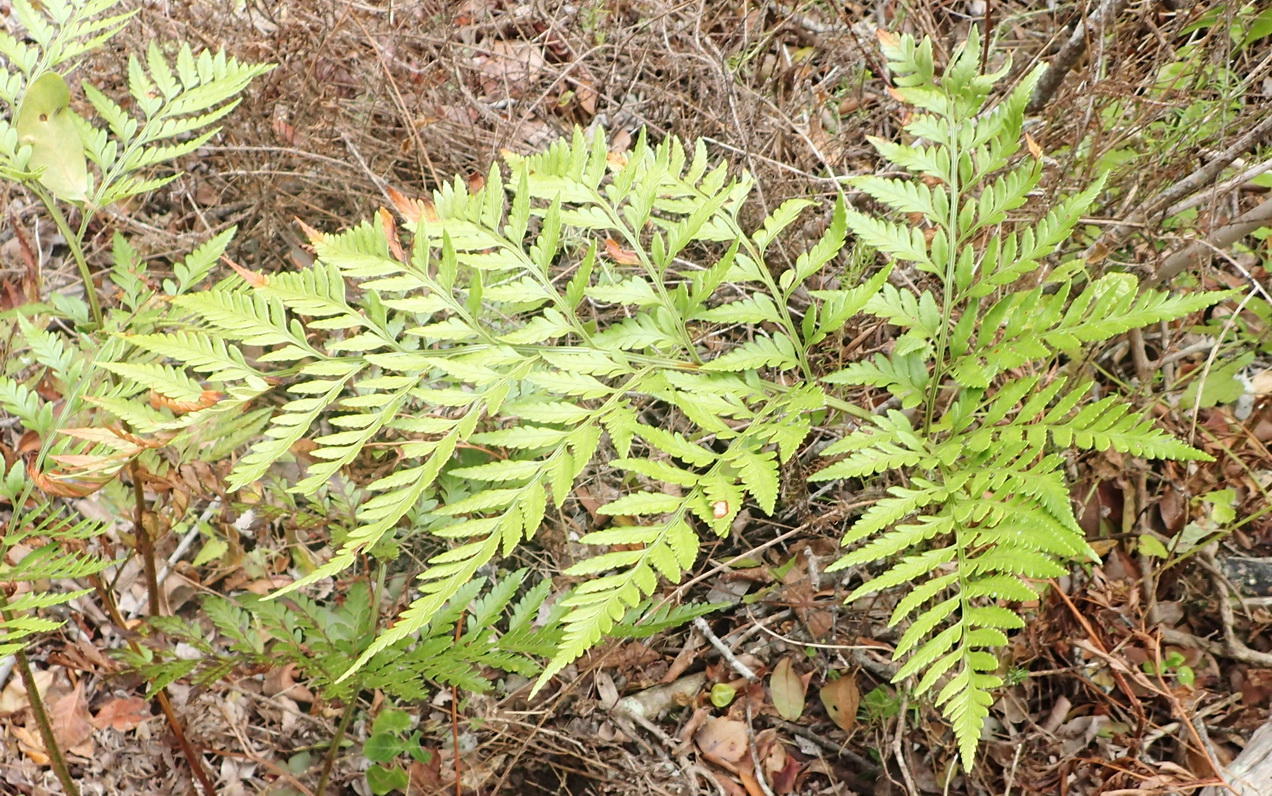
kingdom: Plantae
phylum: Tracheophyta
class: Polypodiopsida
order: Polypodiales
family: Dryopteridaceae
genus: Rumohra
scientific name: Rumohra adiantiformis
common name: Leather fern
